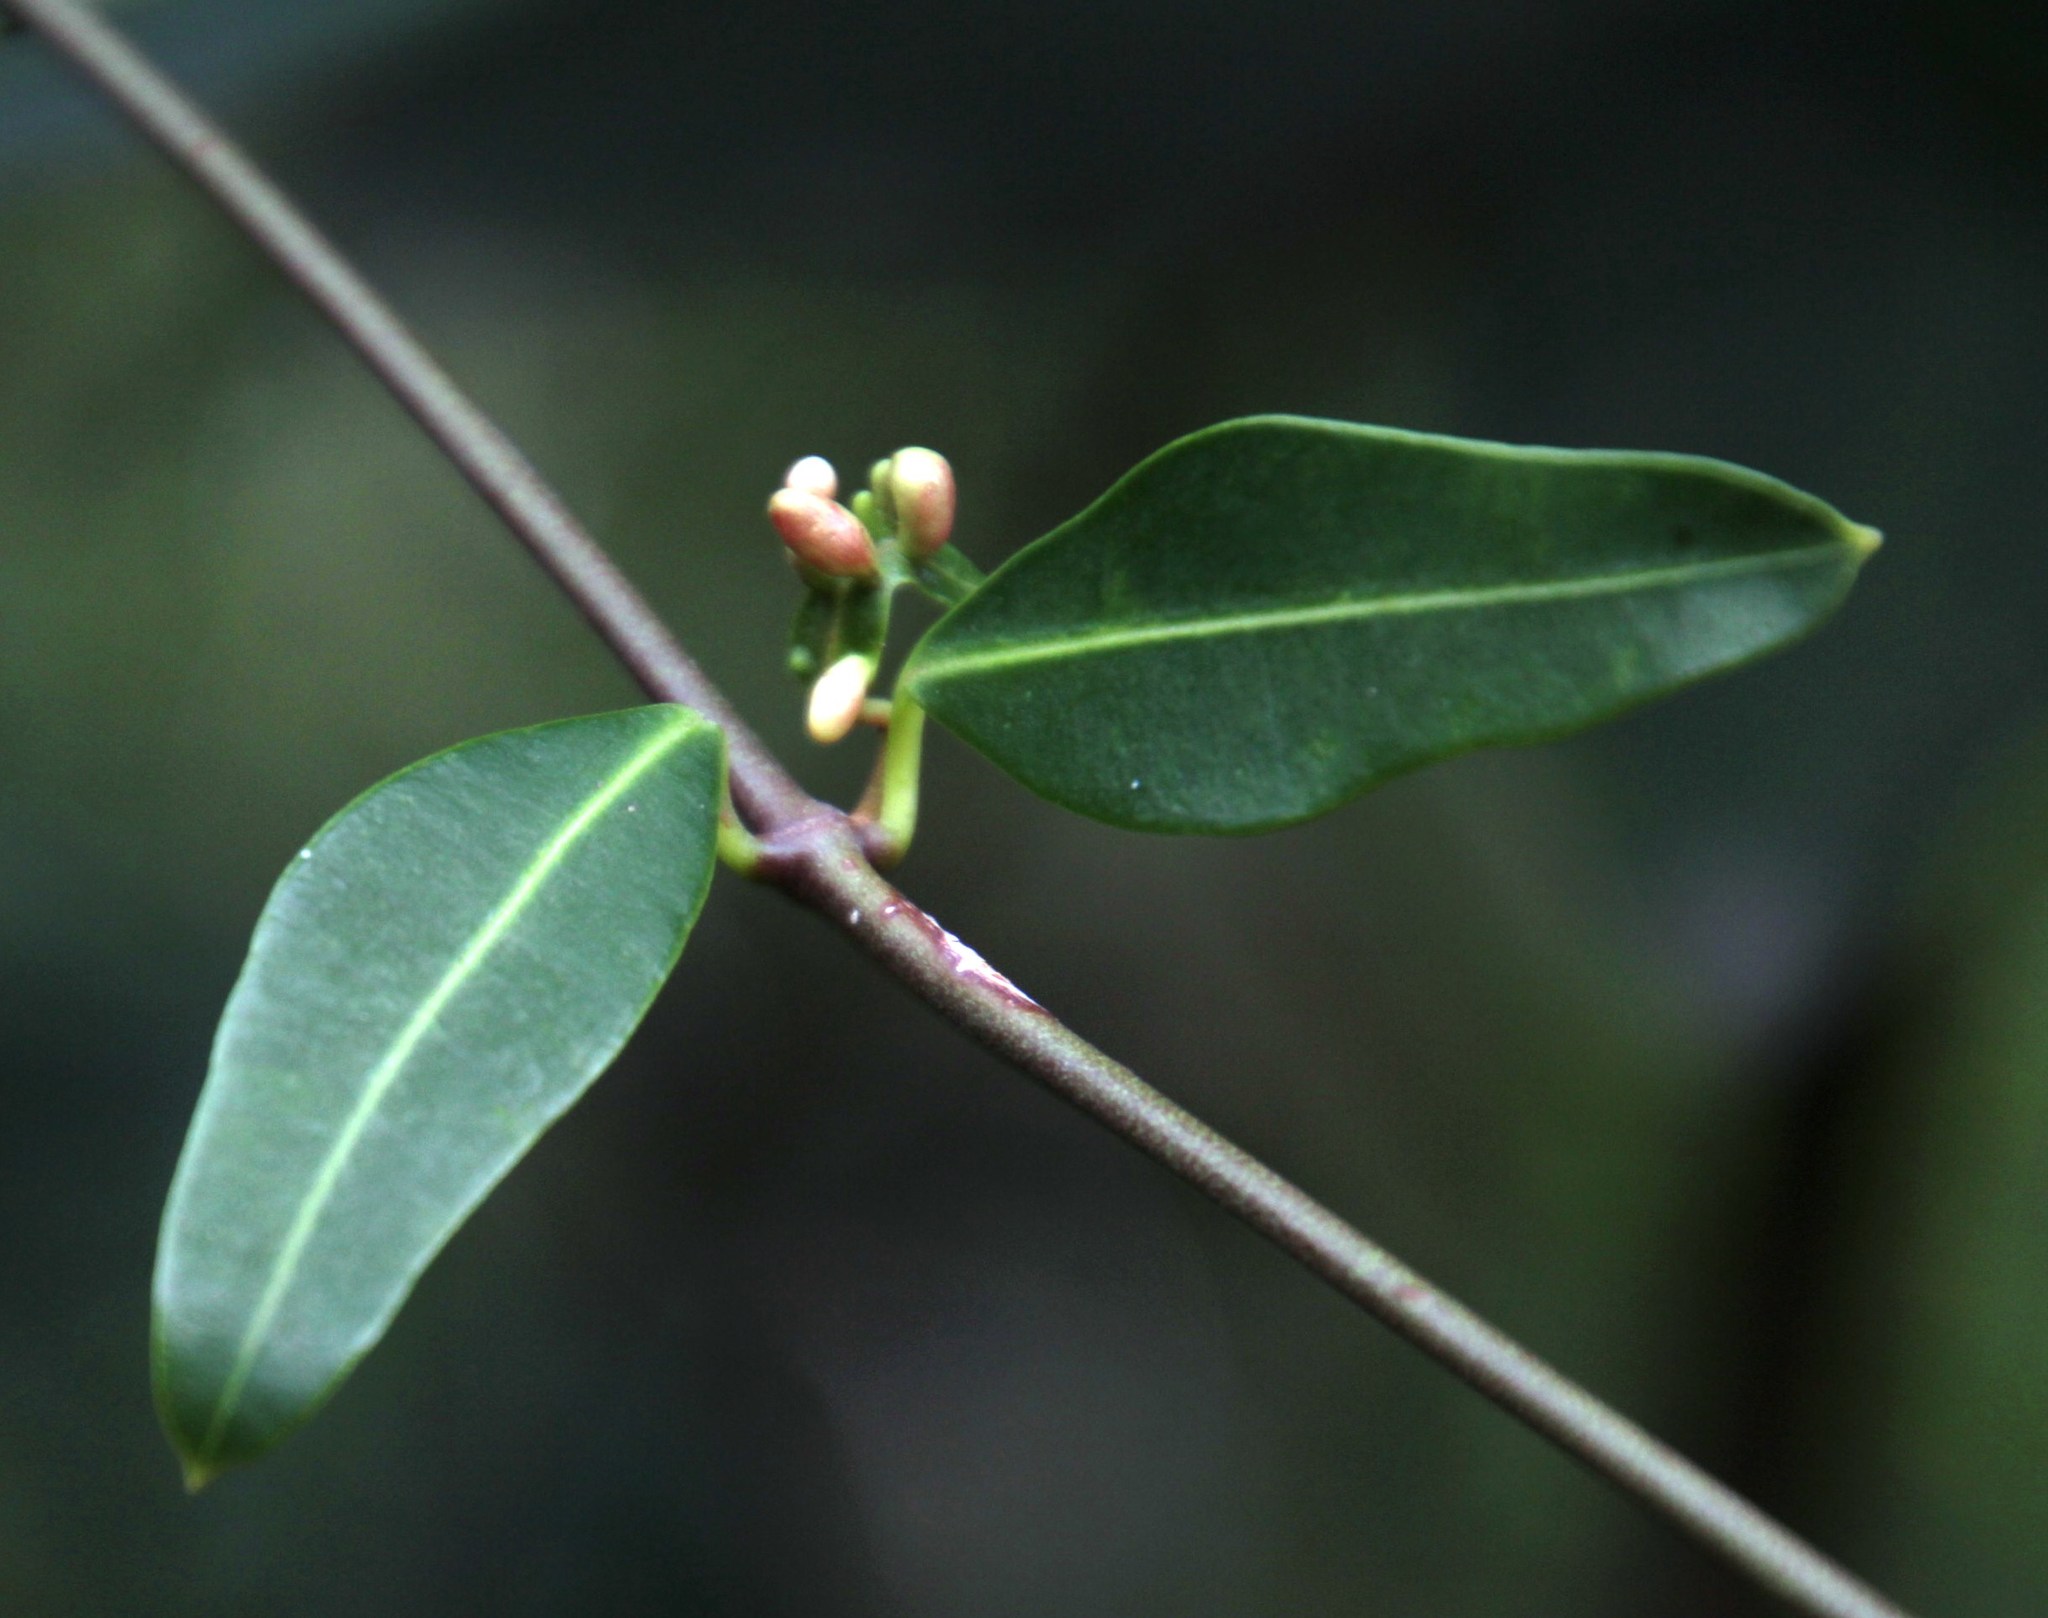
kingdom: Plantae
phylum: Tracheophyta
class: Magnoliopsida
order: Gentianales
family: Apocynaceae
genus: Secamone
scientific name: Secamone alpini
